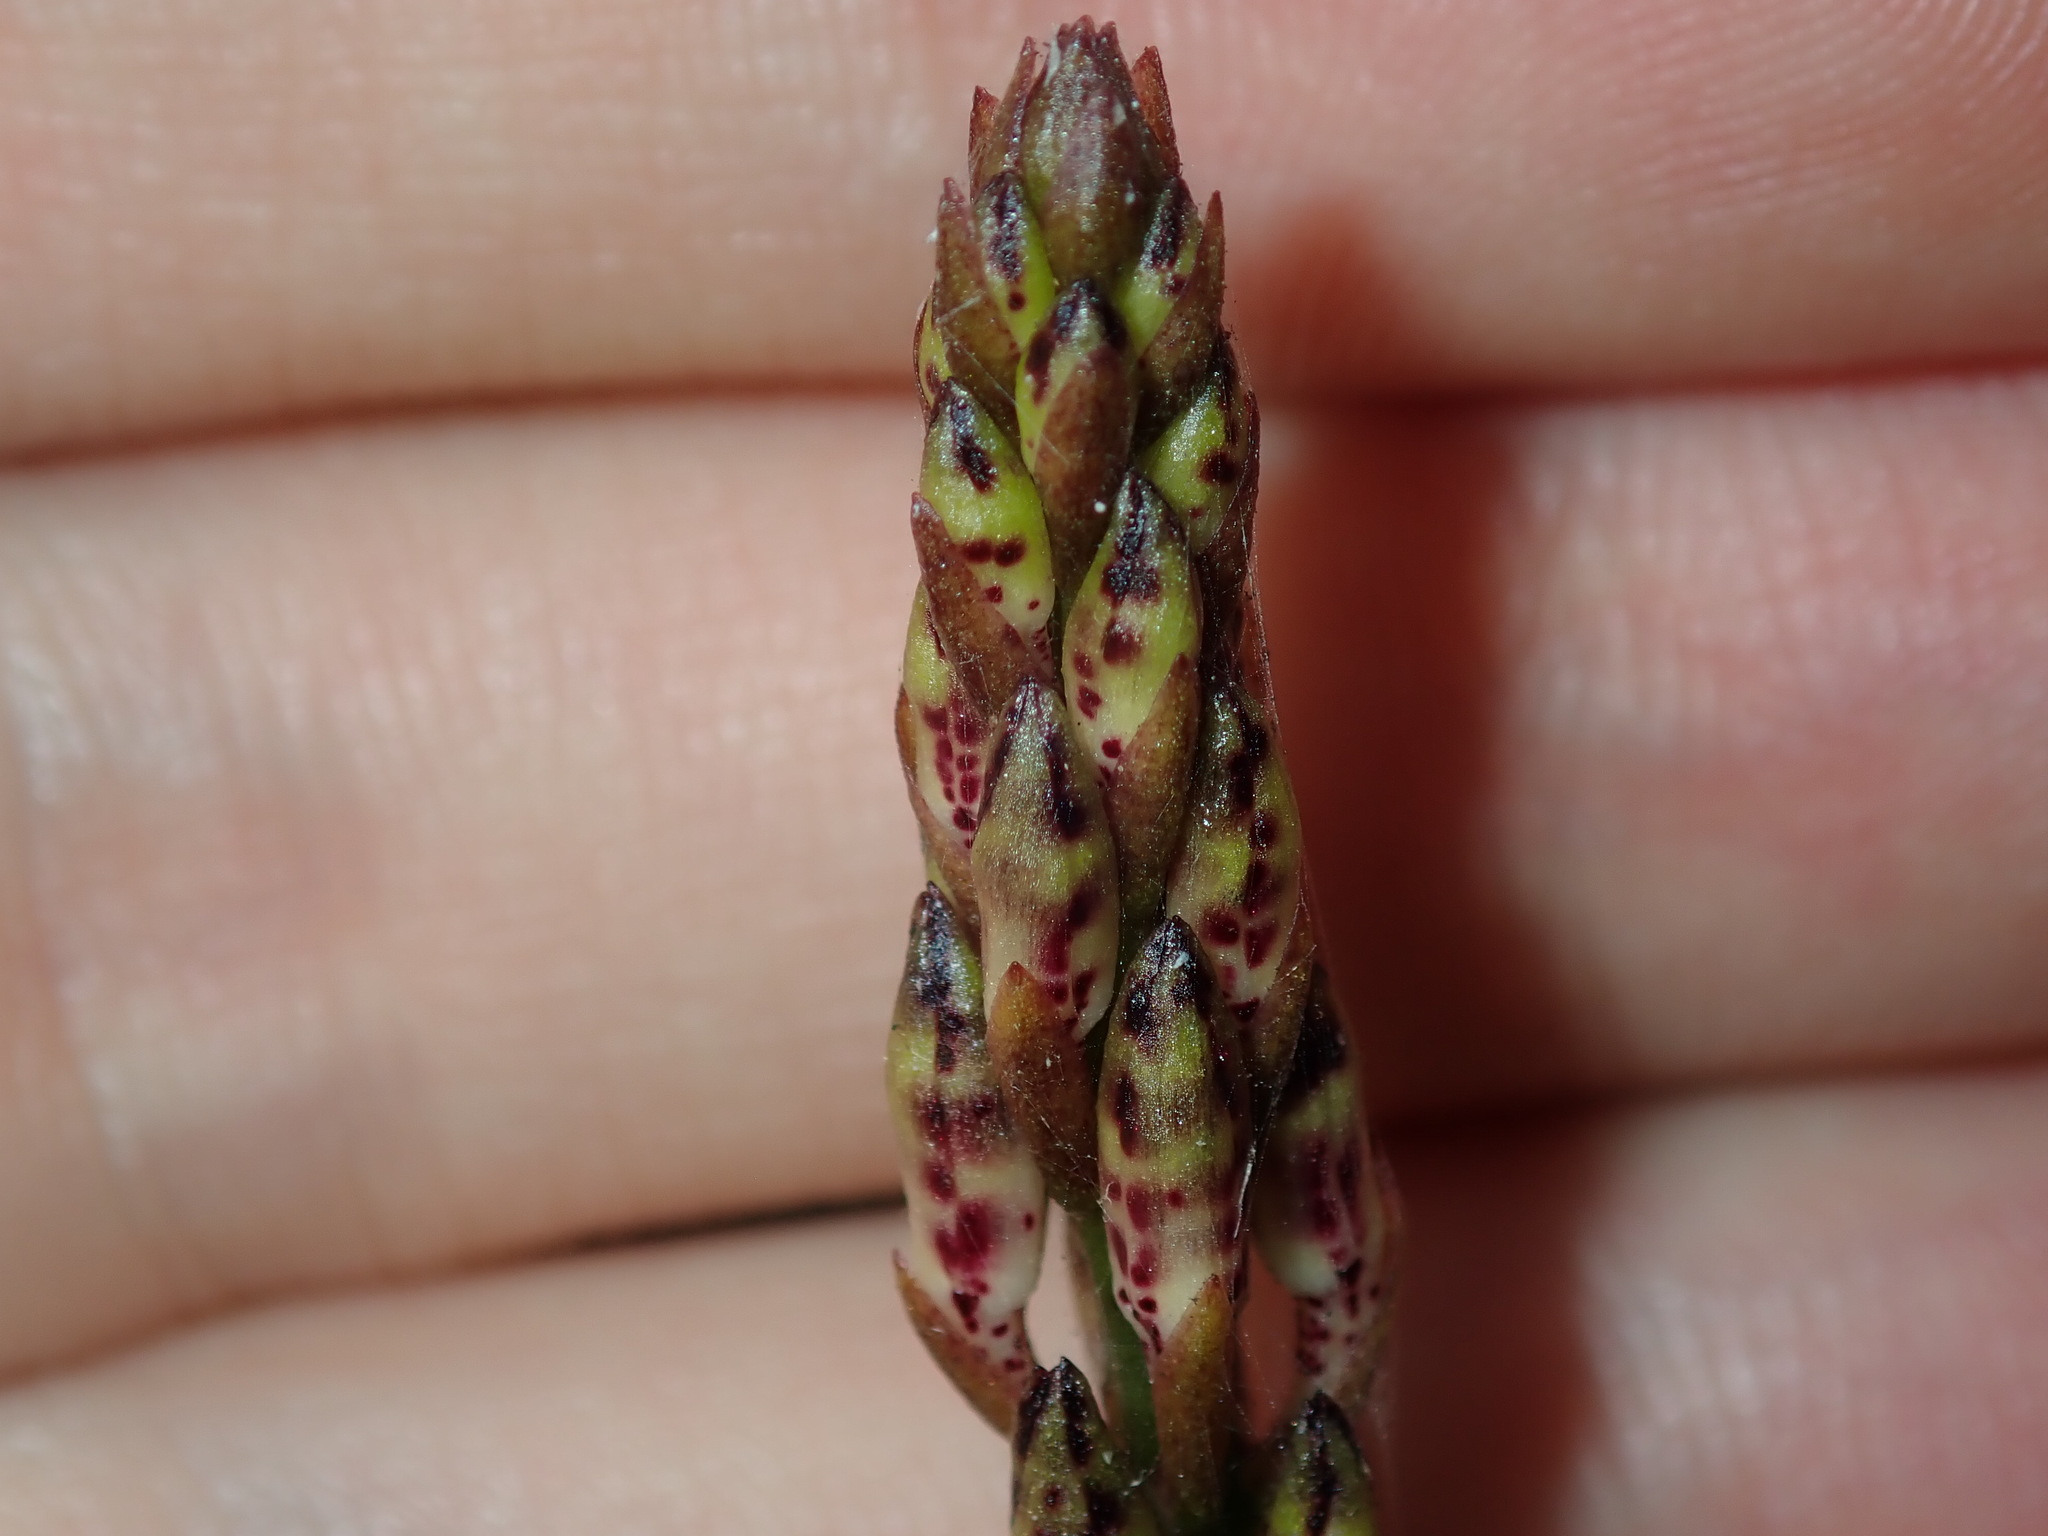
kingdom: Plantae
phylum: Tracheophyta
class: Liliopsida
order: Asparagales
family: Orchidaceae
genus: Dipodium
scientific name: Dipodium variegatum
